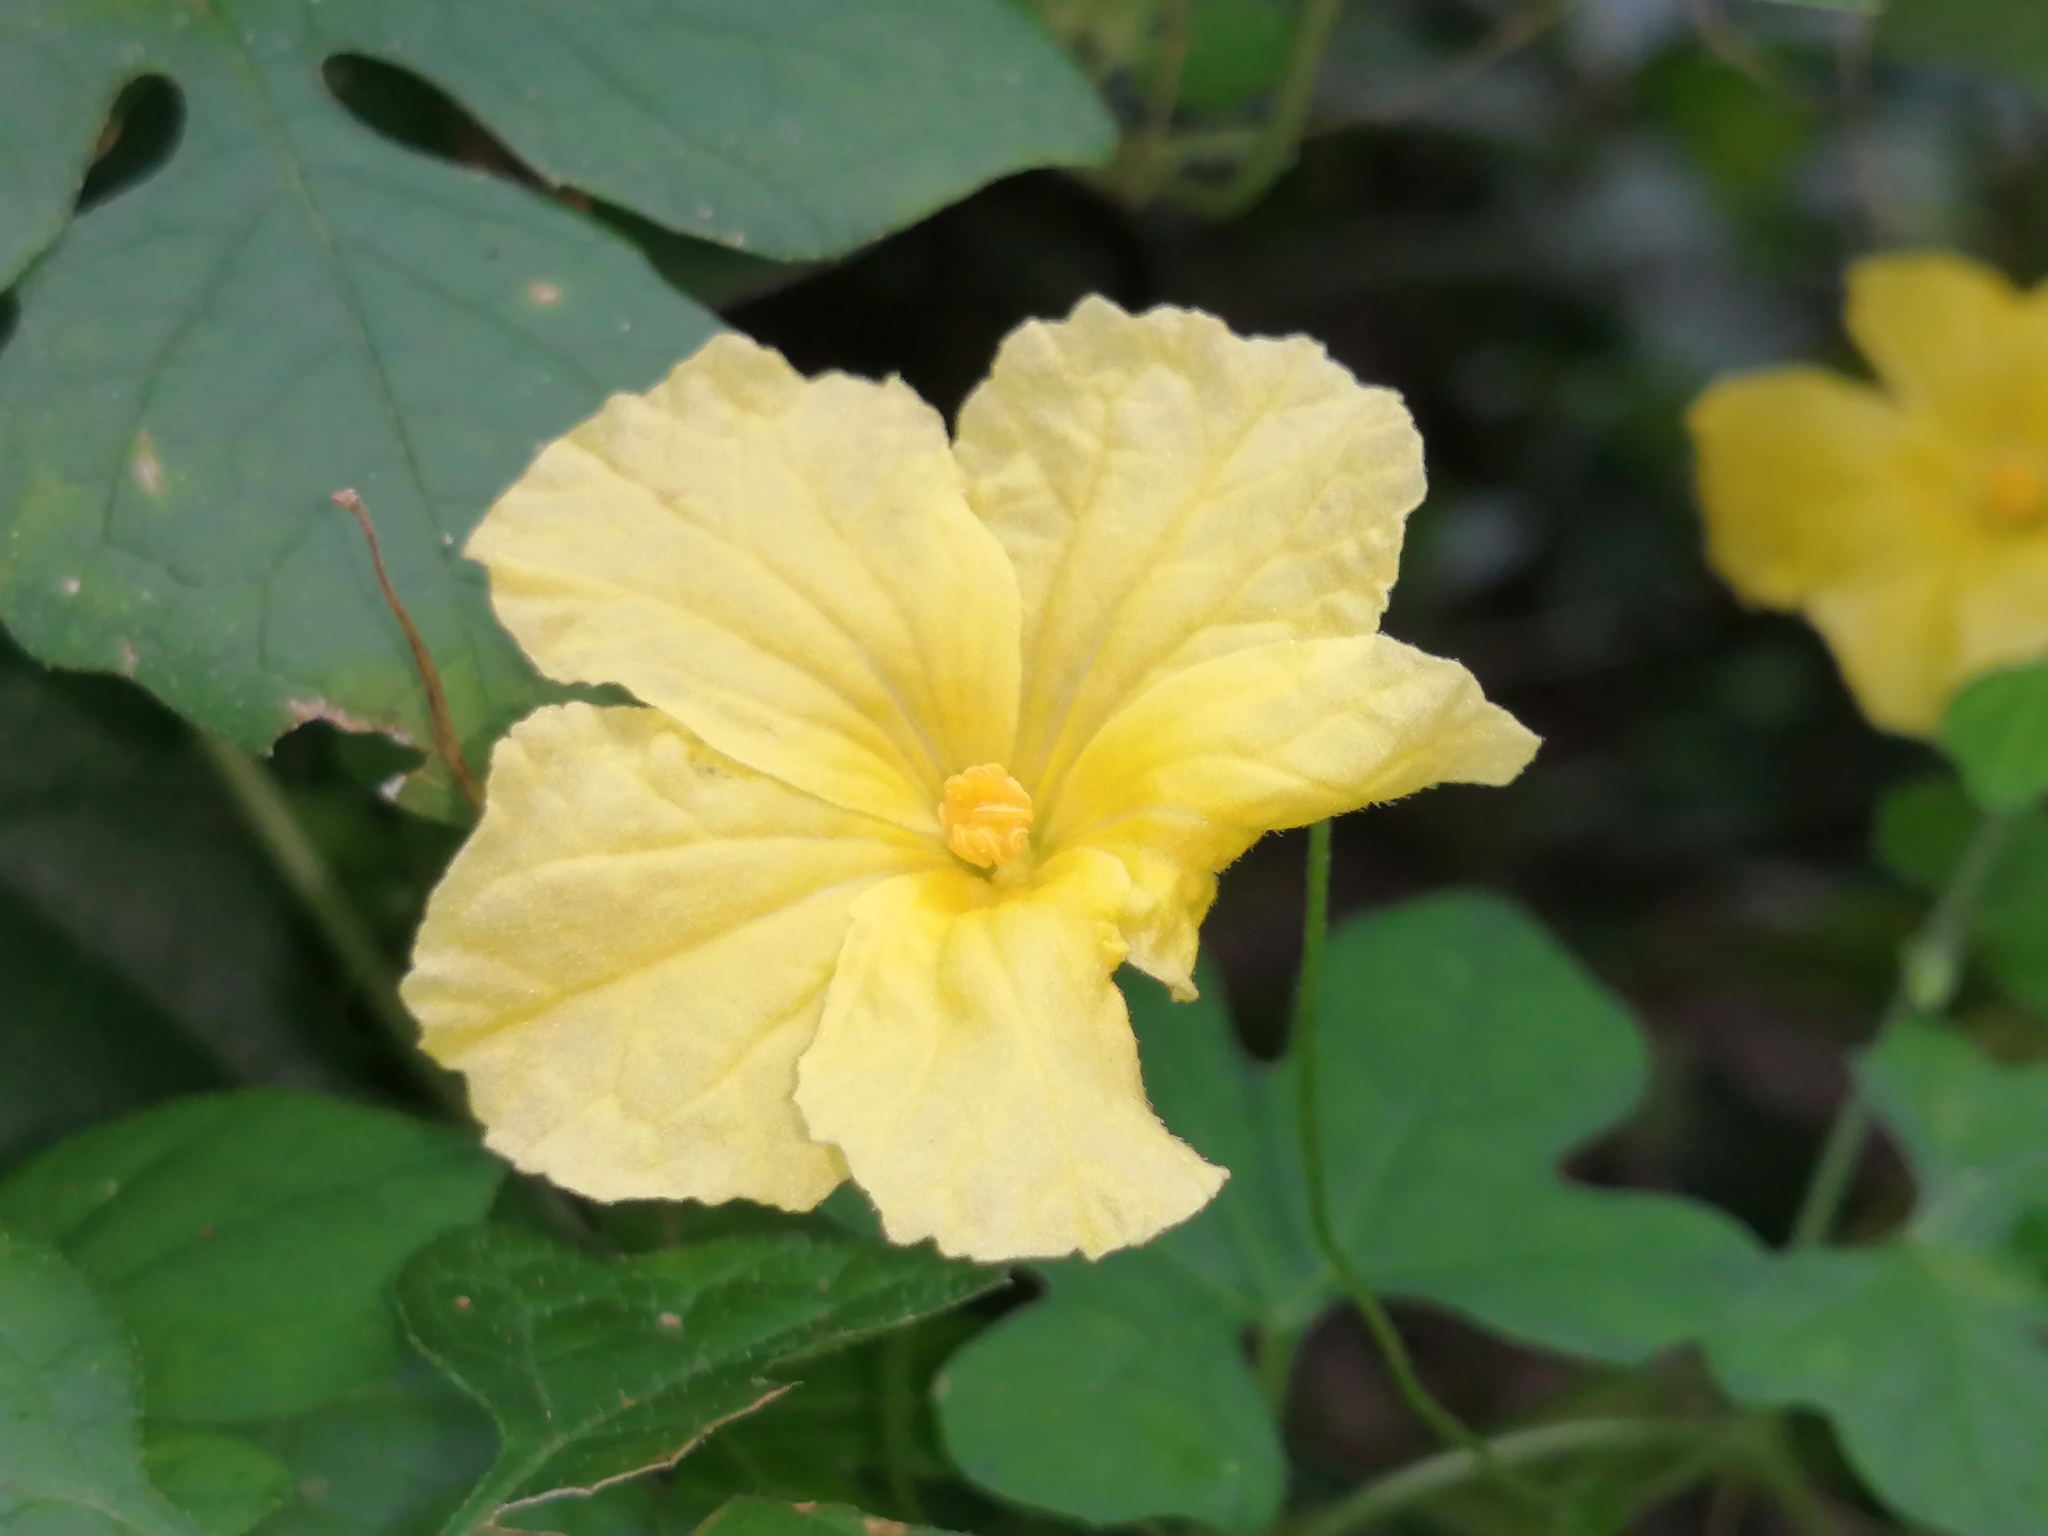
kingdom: Plantae
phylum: Tracheophyta
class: Magnoliopsida
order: Cucurbitales
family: Cucurbitaceae
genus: Momordica
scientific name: Momordica charantia
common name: Balsampear
